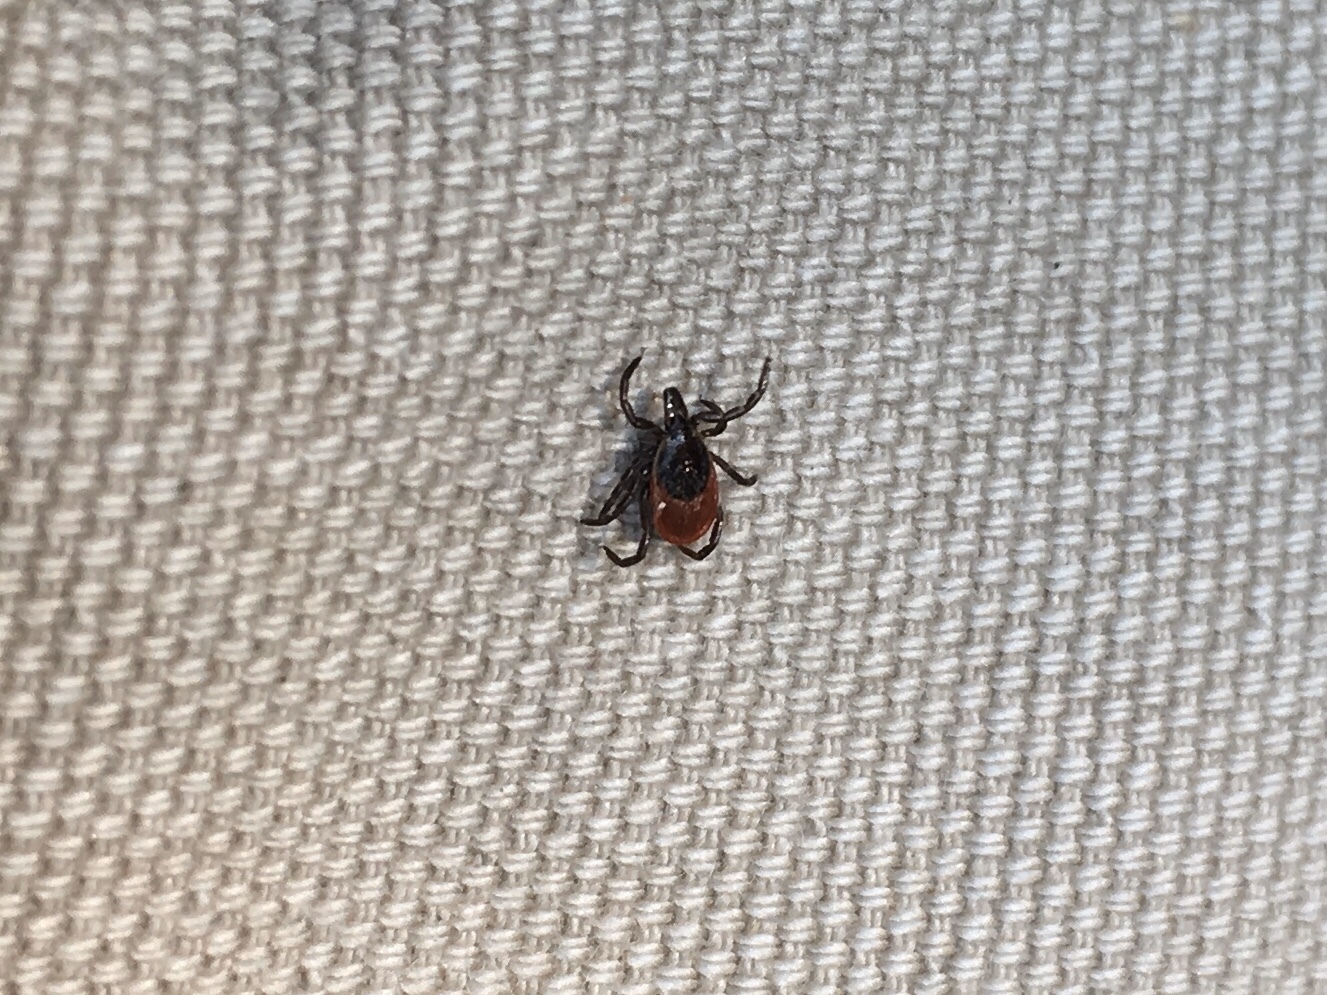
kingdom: Animalia
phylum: Arthropoda
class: Arachnida
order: Ixodida
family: Ixodidae
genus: Ixodes
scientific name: Ixodes scapularis
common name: Black legged tick
